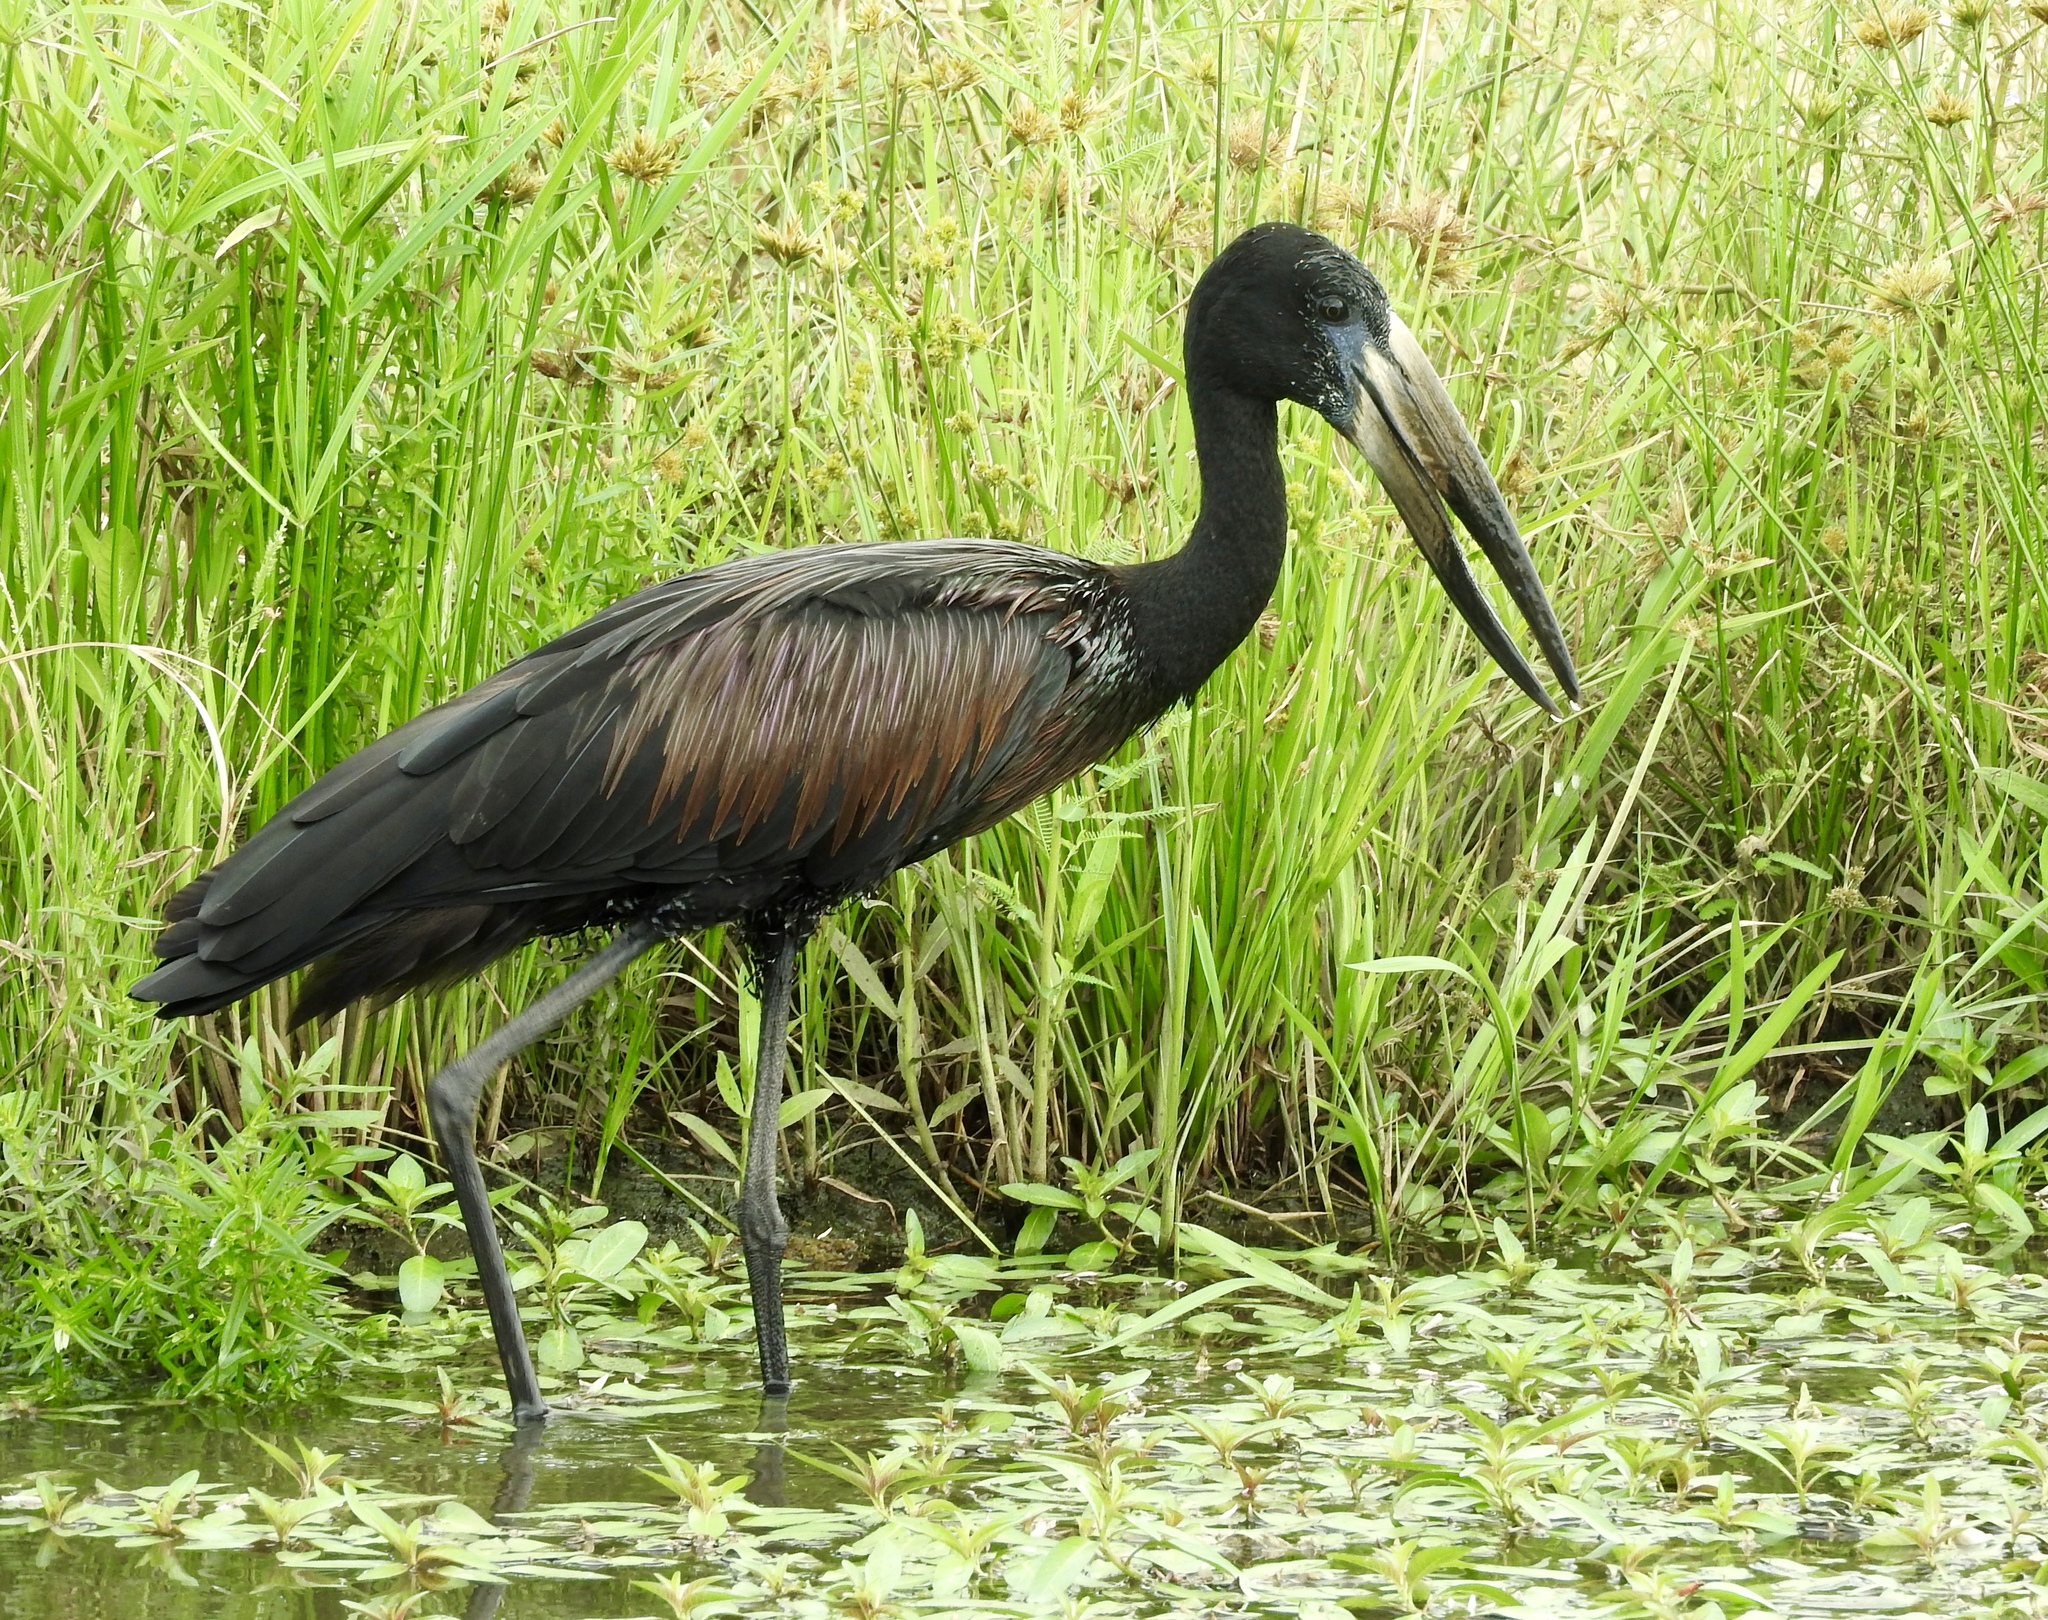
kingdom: Animalia
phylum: Chordata
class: Aves
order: Ciconiiformes
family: Ciconiidae
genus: Anastomus
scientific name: Anastomus lamelligerus
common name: African openbill
